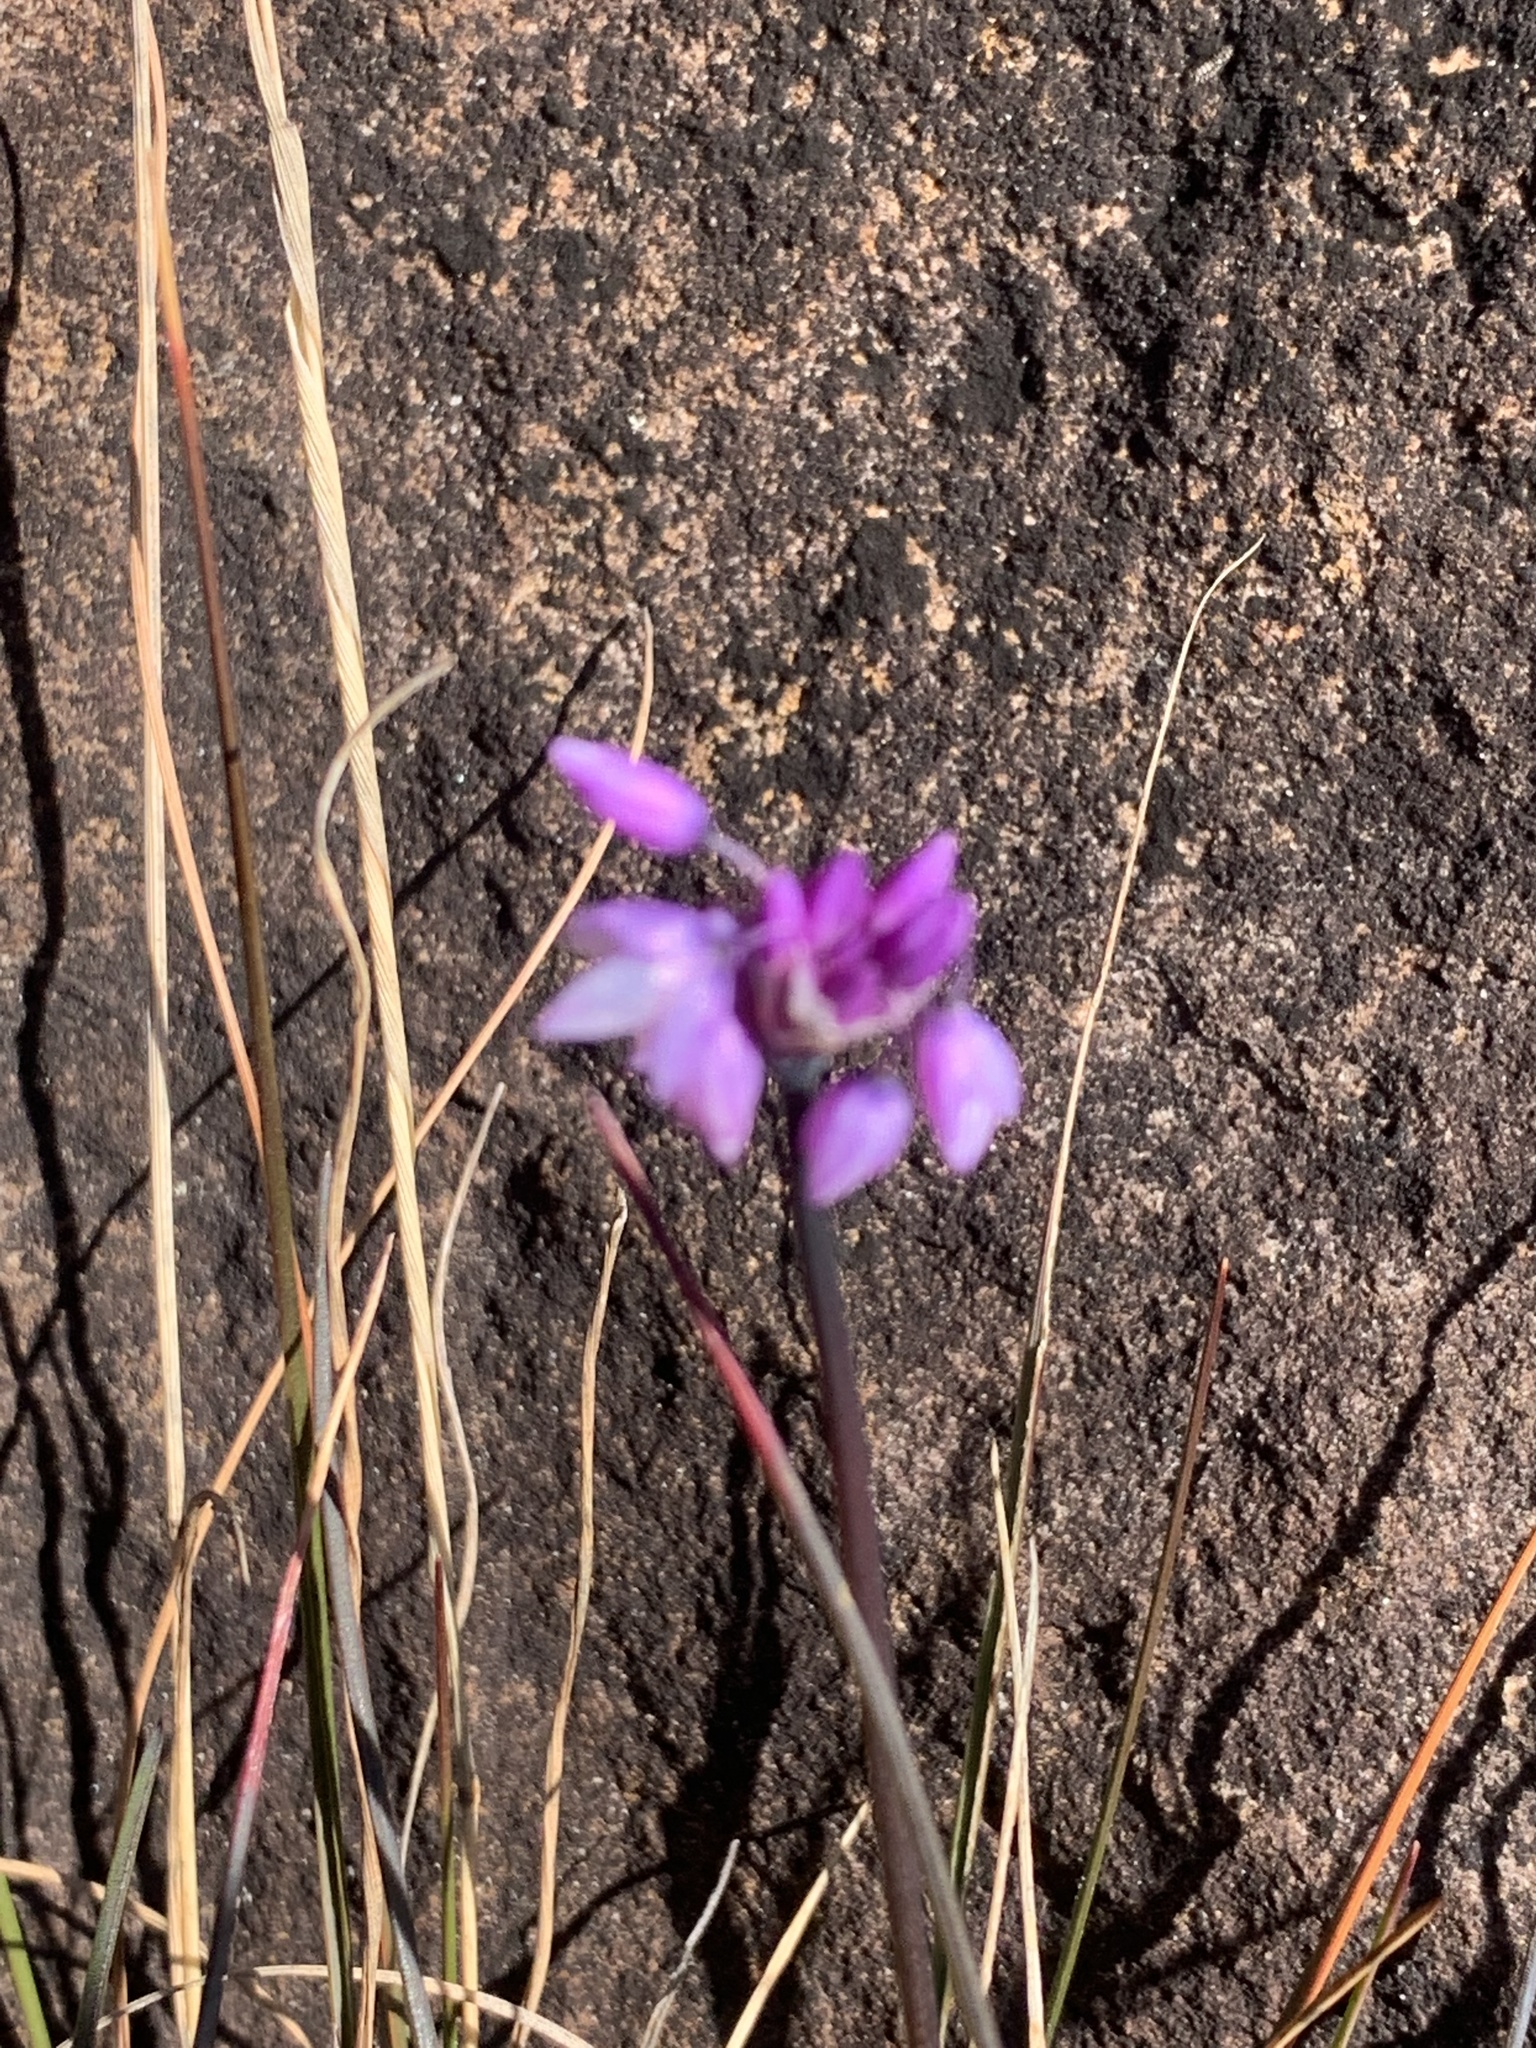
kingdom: Plantae
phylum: Tracheophyta
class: Liliopsida
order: Asparagales
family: Asparagaceae
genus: Sowerbaea
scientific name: Sowerbaea juncea
